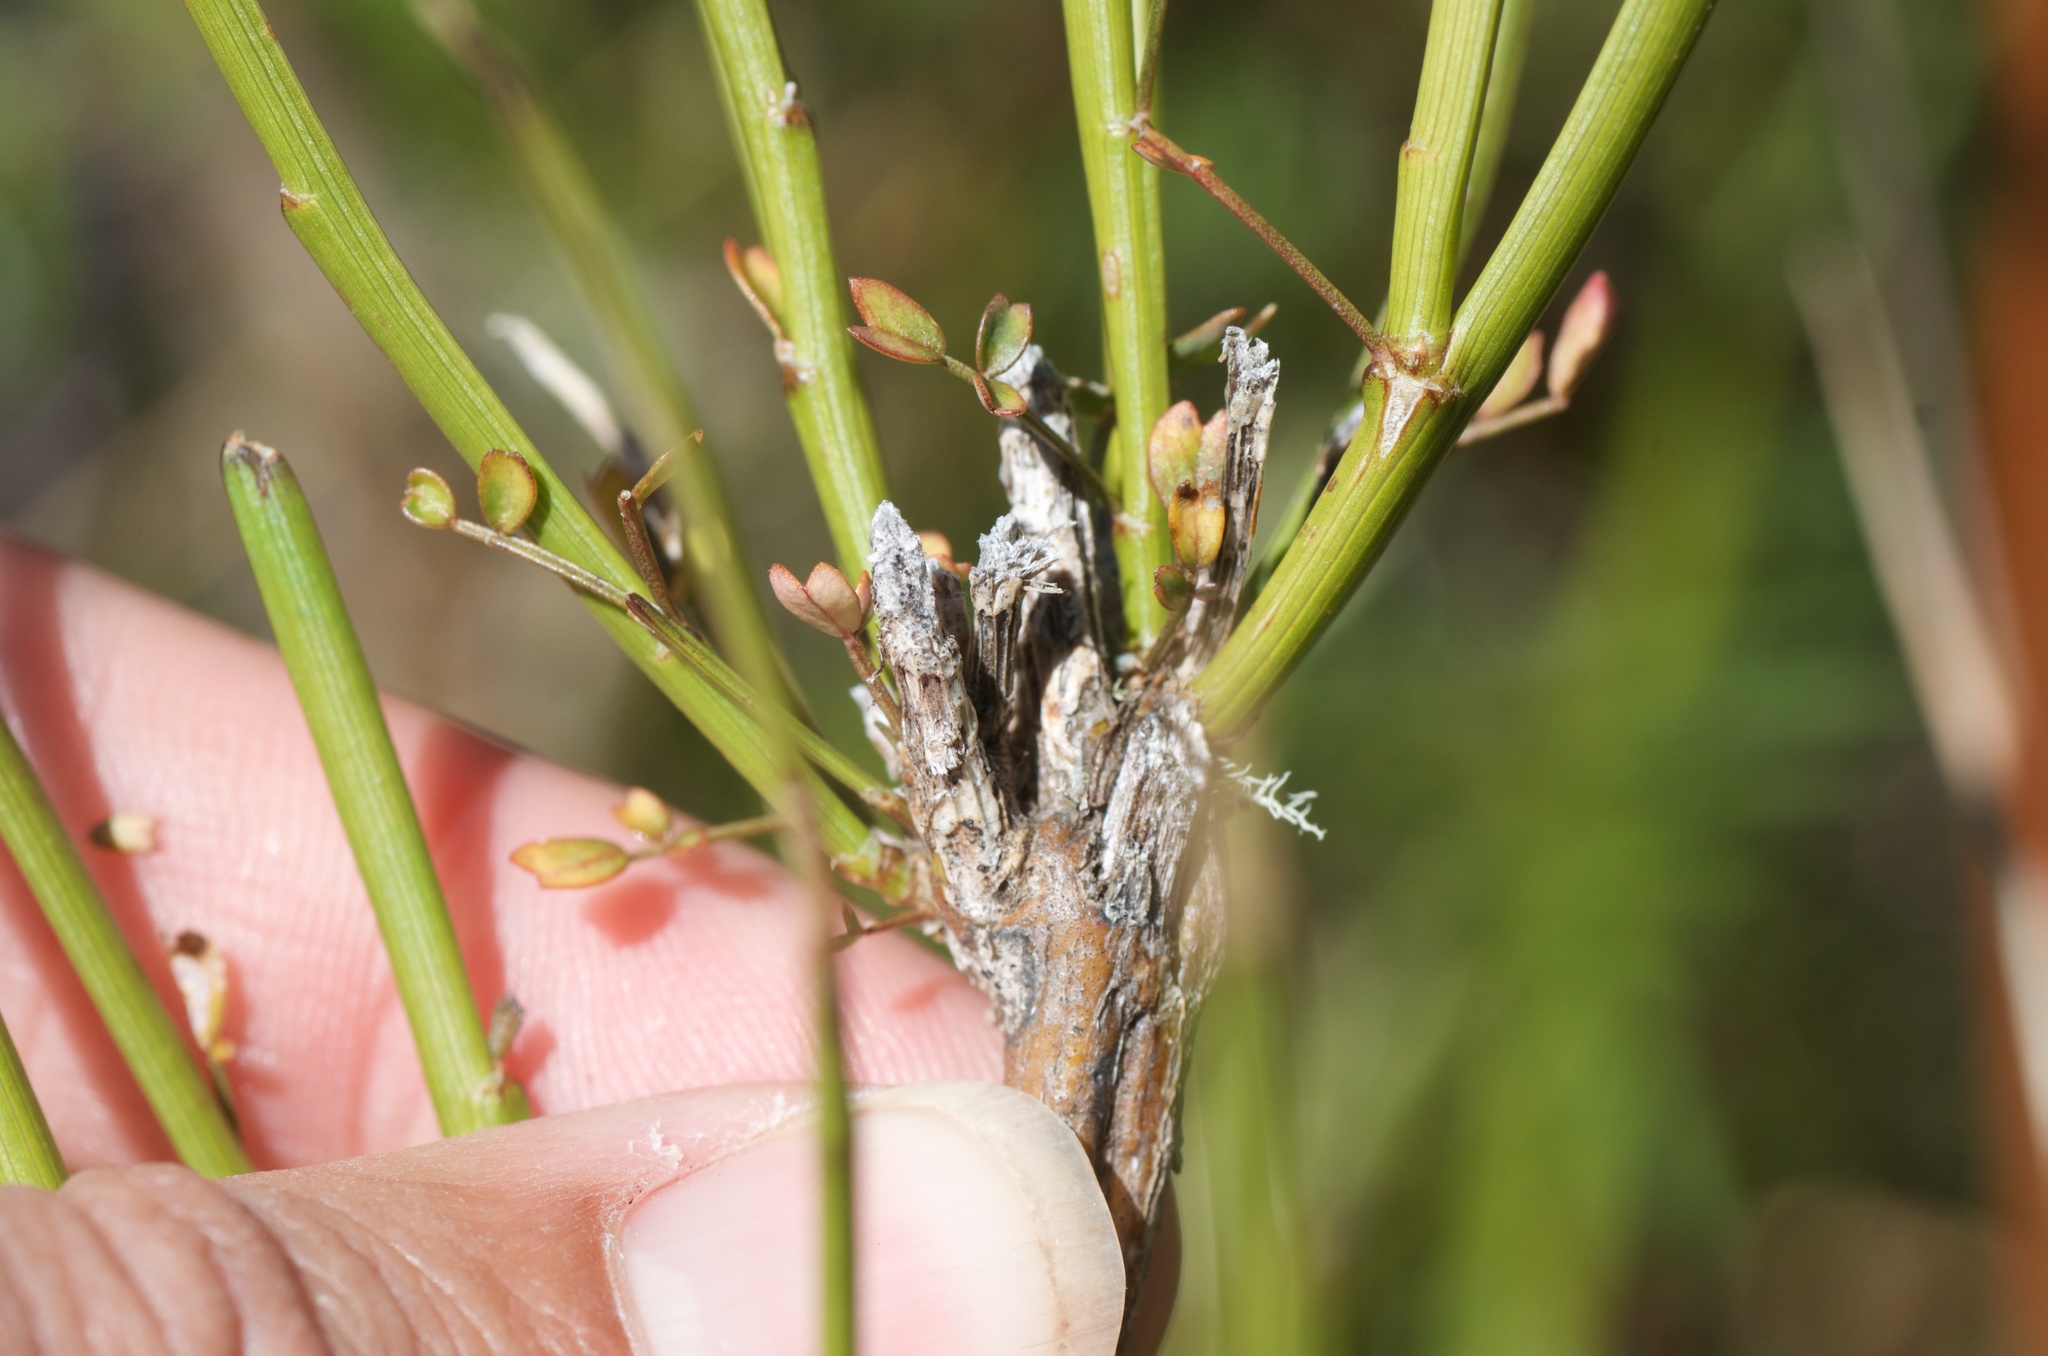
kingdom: Plantae
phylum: Tracheophyta
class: Magnoliopsida
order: Fabales
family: Fabaceae
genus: Carmichaelia
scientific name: Carmichaelia australis
